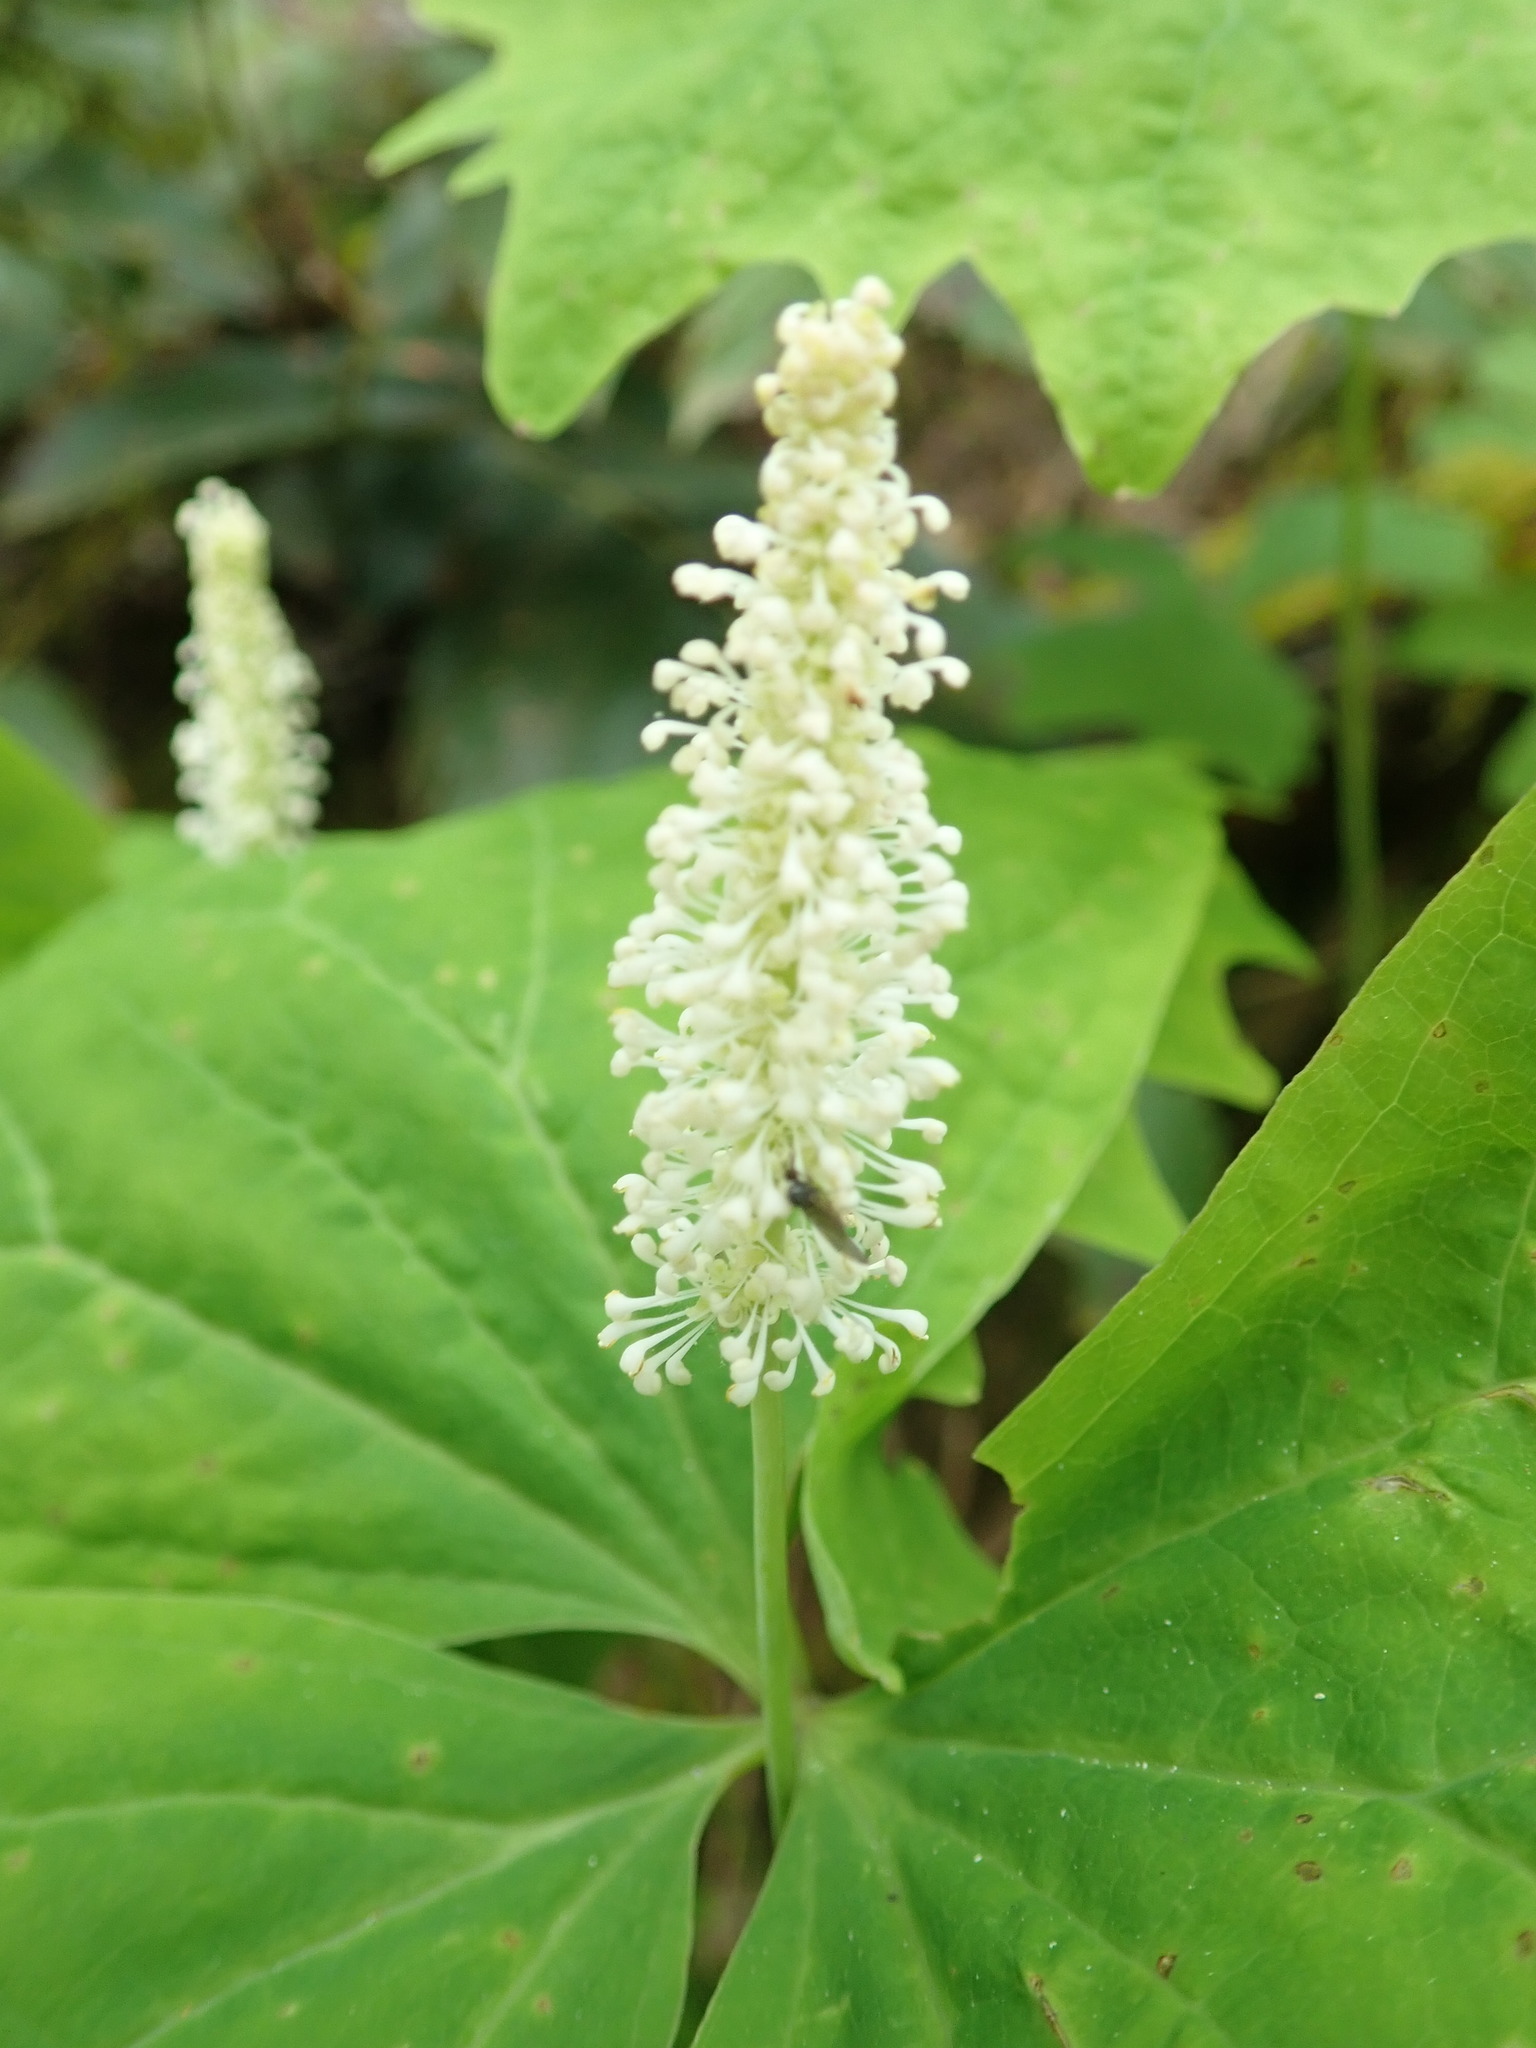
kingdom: Plantae
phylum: Tracheophyta
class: Magnoliopsida
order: Ranunculales
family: Berberidaceae
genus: Achlys
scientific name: Achlys triphylla
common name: Vanilla-leaf
